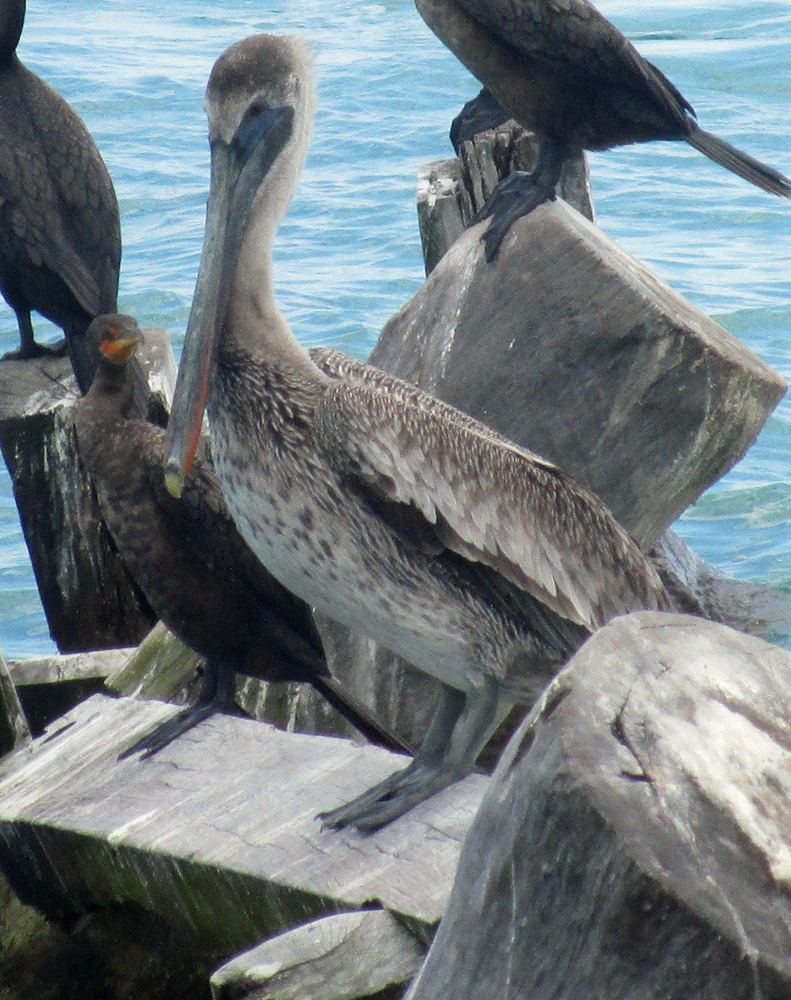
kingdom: Animalia
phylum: Chordata
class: Aves
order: Pelecaniformes
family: Pelecanidae
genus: Pelecanus
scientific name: Pelecanus occidentalis
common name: Brown pelican
